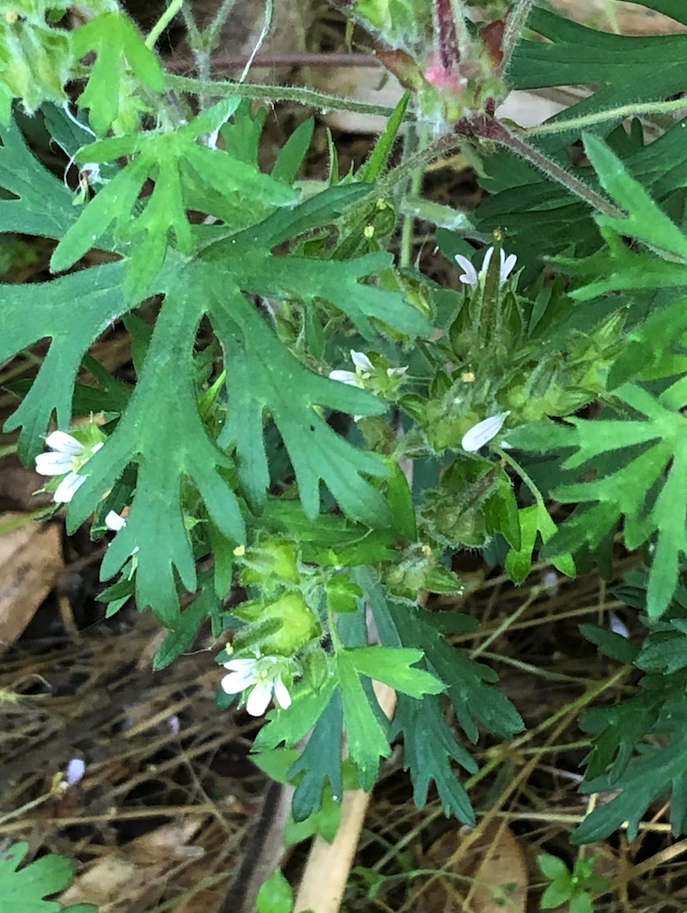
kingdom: Plantae
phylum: Tracheophyta
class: Magnoliopsida
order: Geraniales
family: Geraniaceae
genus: Geranium
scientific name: Geranium carolinianum
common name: Carolina crane's-bill
